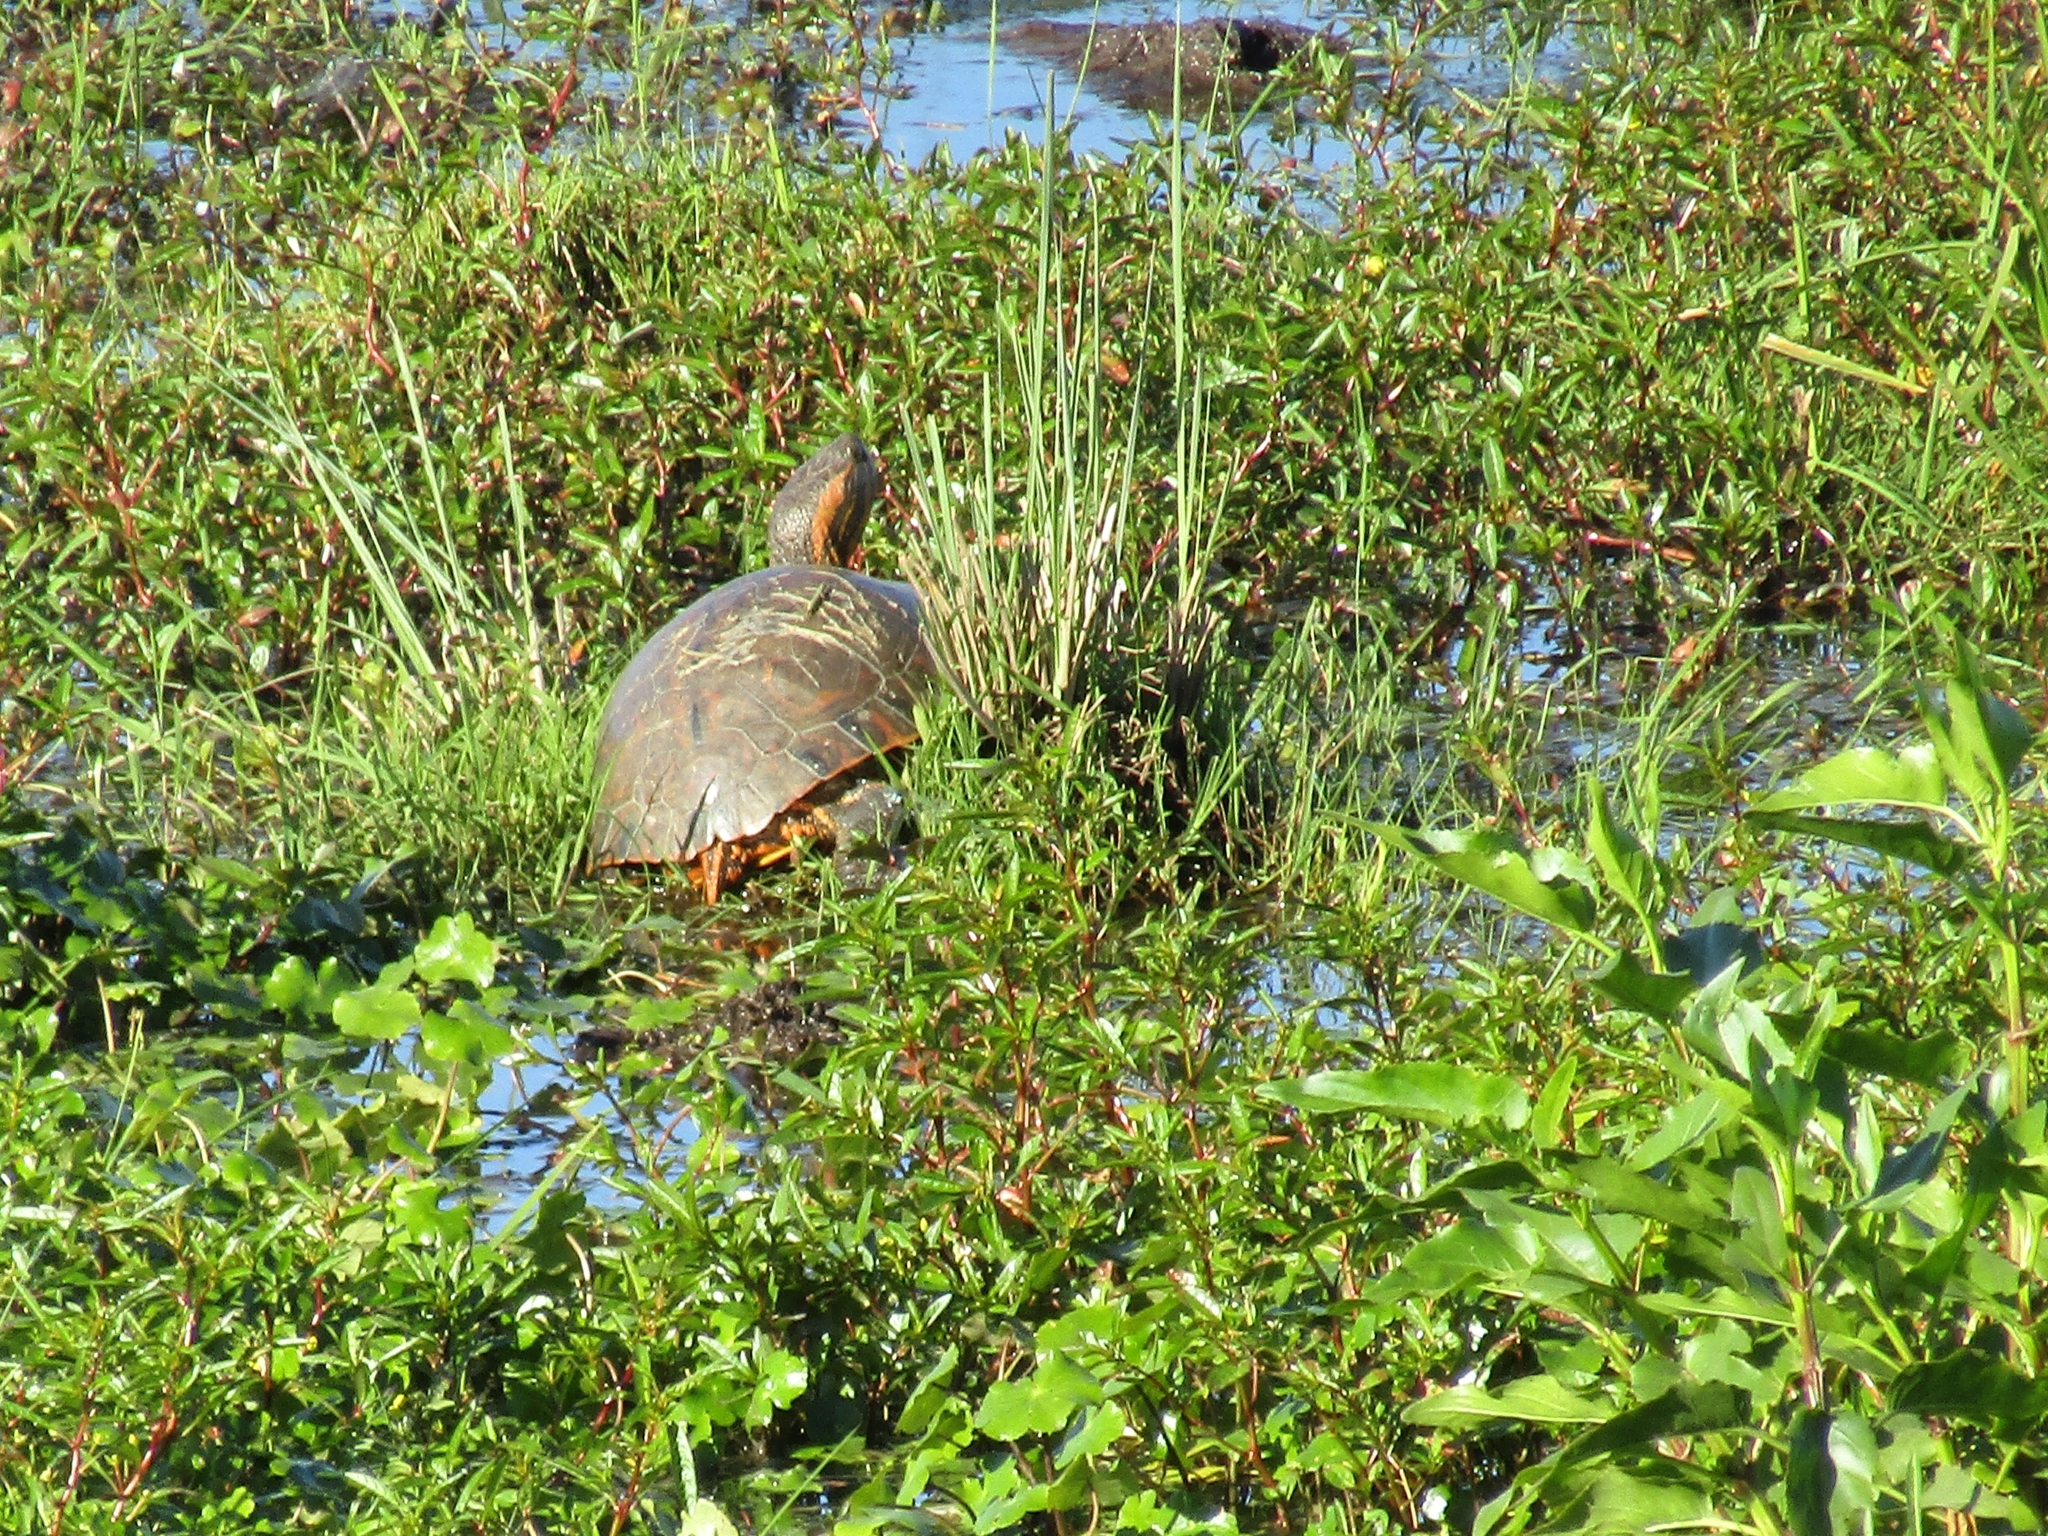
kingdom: Animalia
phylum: Chordata
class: Testudines
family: Emydidae
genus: Trachemys
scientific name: Trachemys dorbigni
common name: Black-bellied slider
